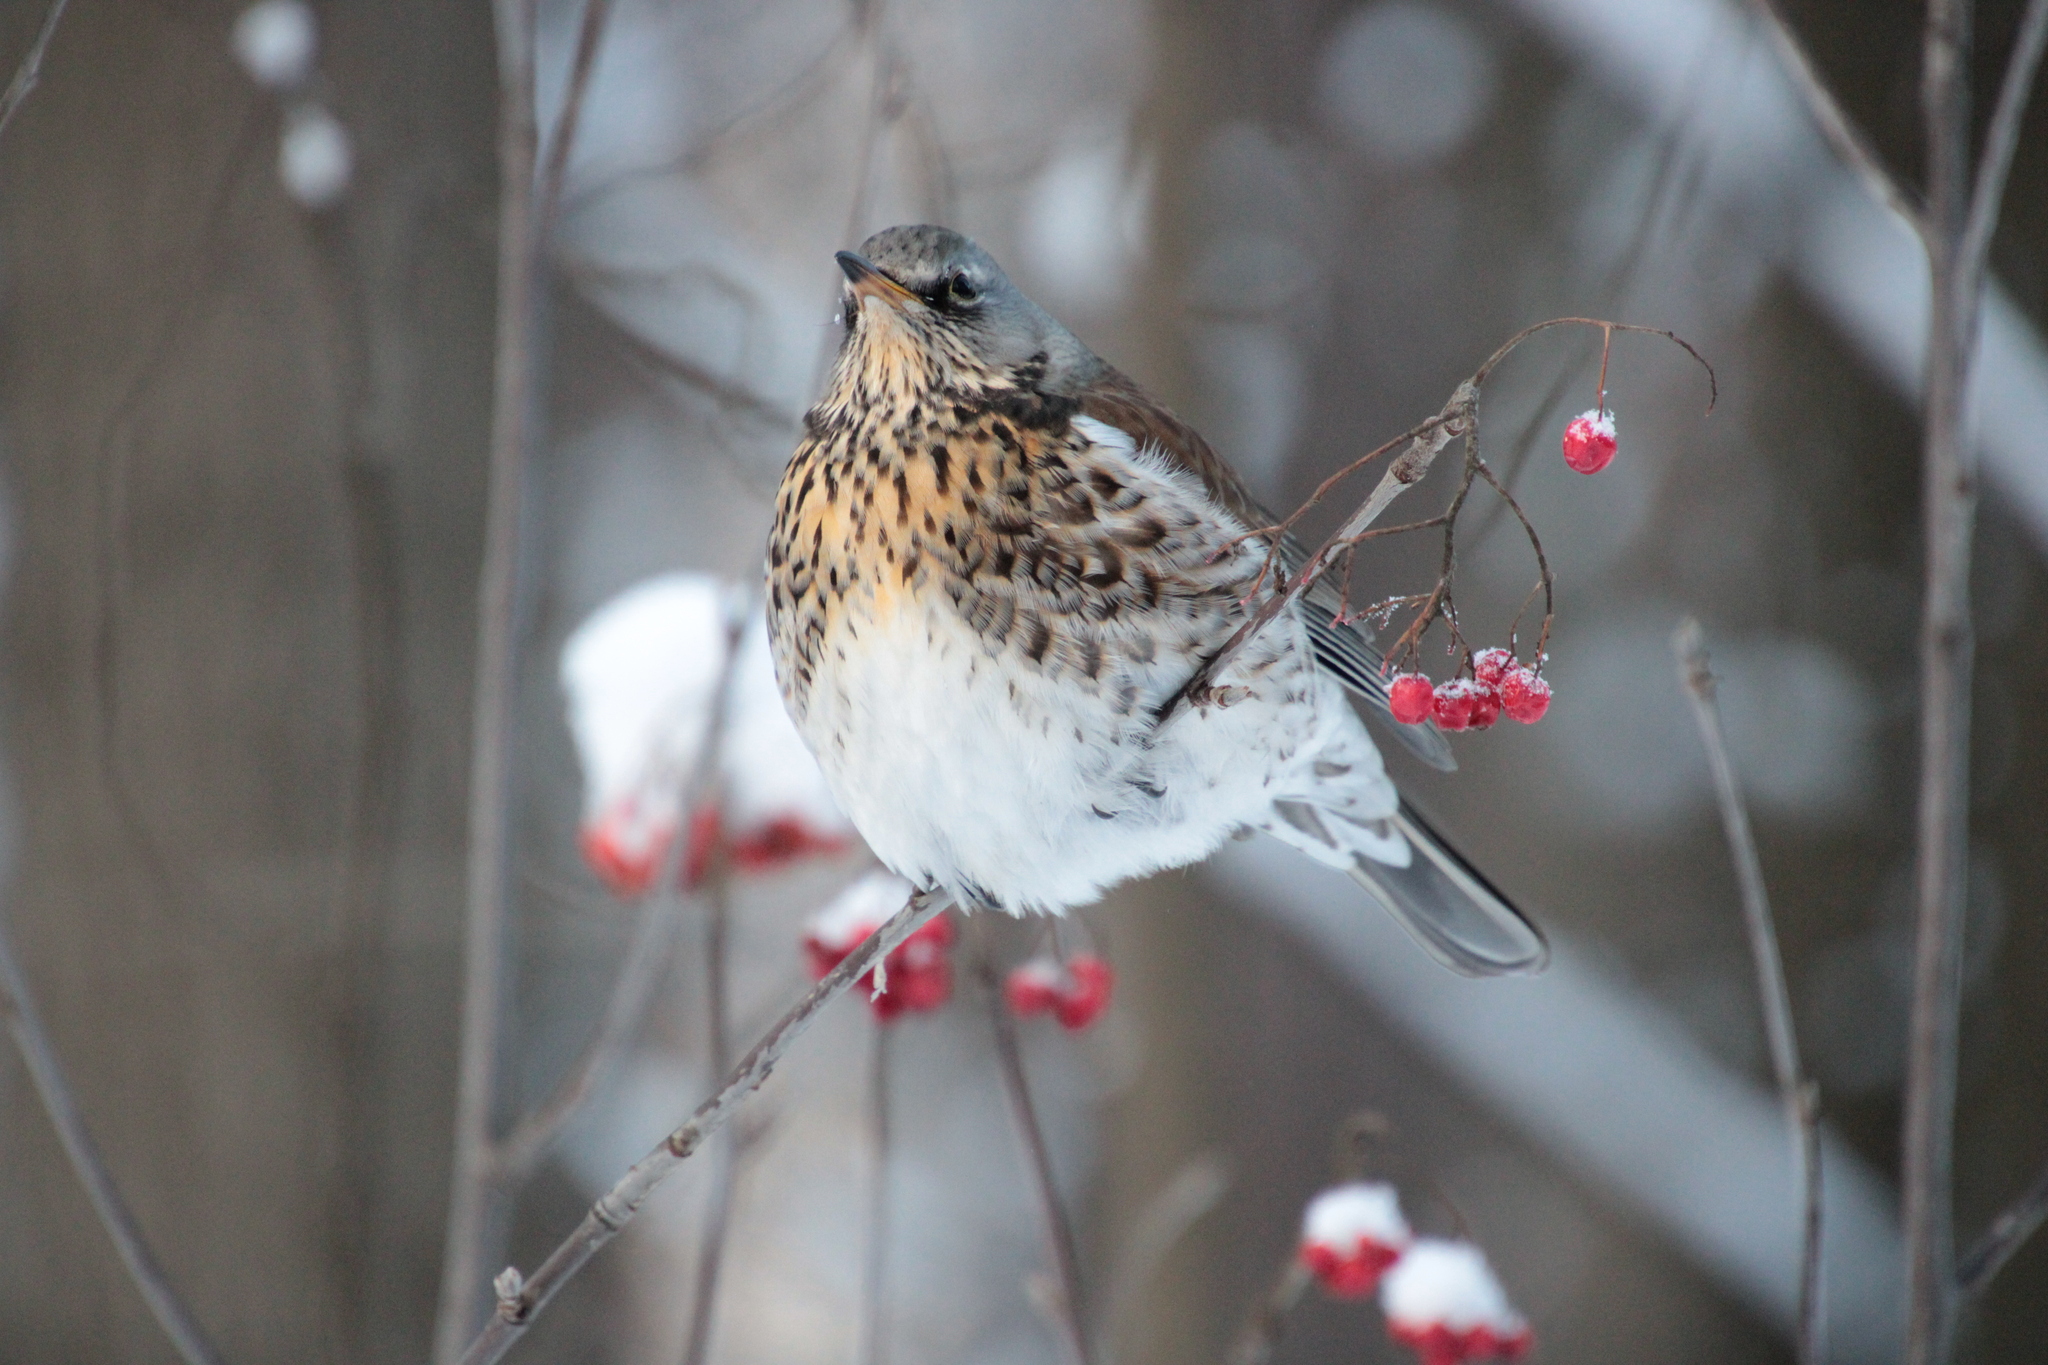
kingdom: Animalia
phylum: Chordata
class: Aves
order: Passeriformes
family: Turdidae
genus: Turdus
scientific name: Turdus pilaris
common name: Fieldfare
